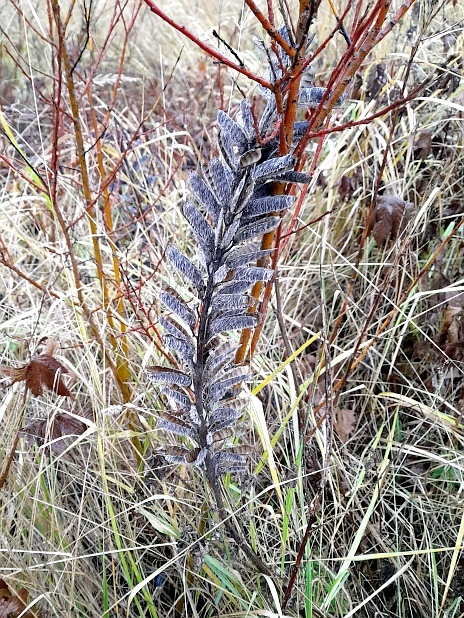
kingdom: Plantae
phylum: Tracheophyta
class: Magnoliopsida
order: Fabales
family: Fabaceae
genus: Lupinus
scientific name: Lupinus polyphyllus
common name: Garden lupin
